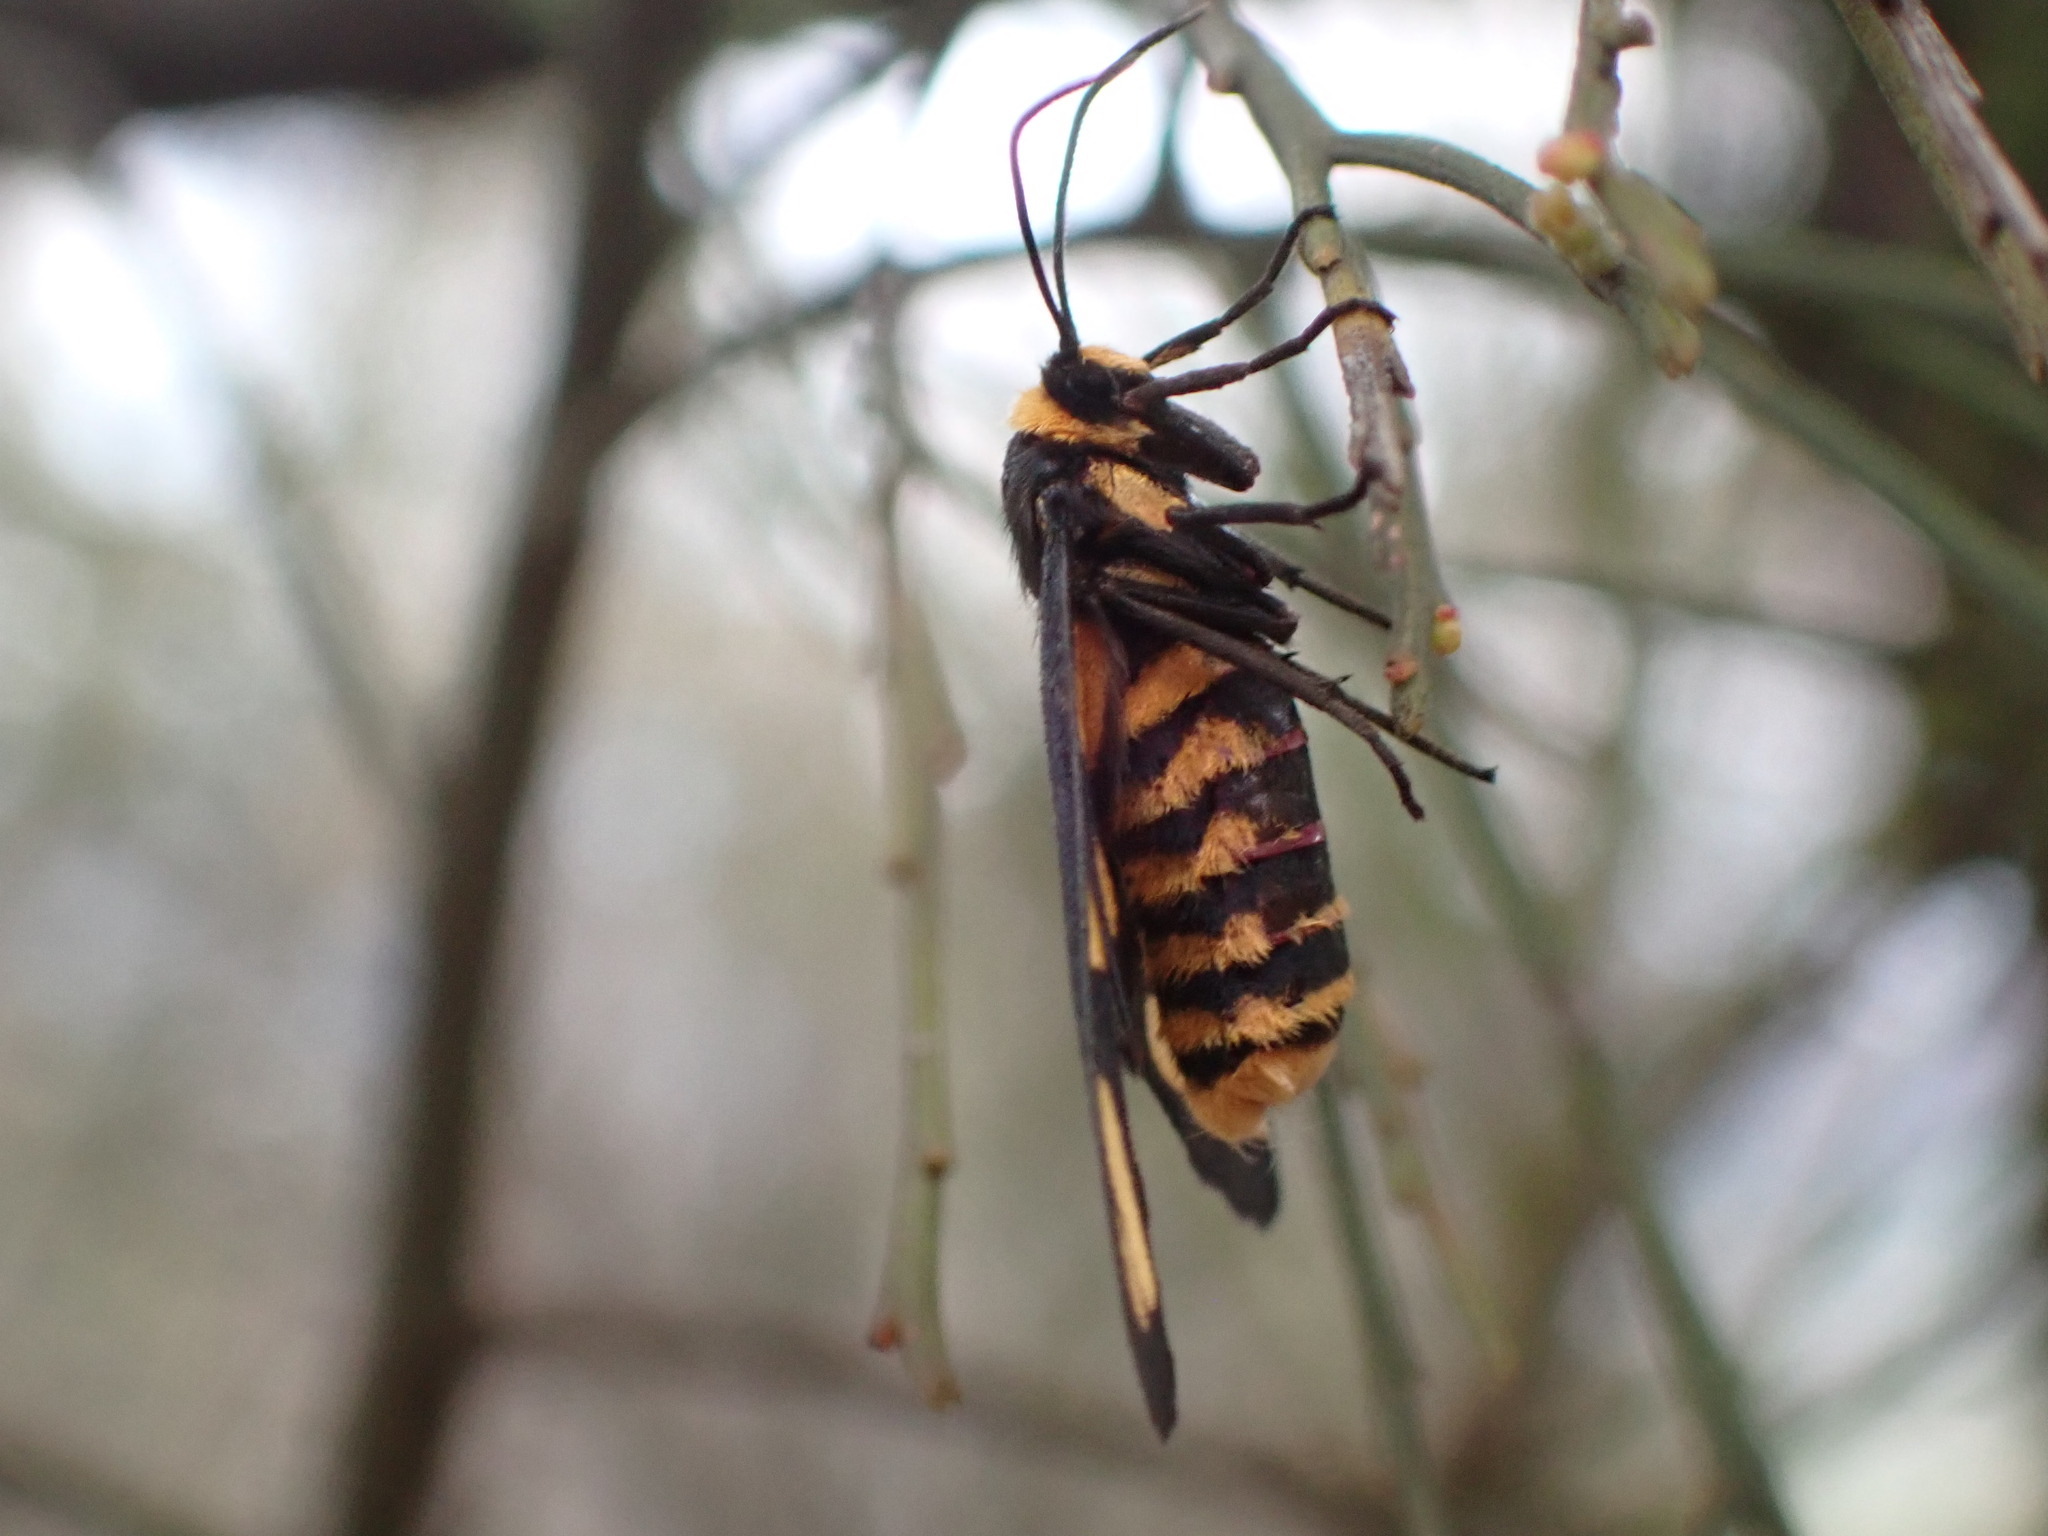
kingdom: Animalia
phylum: Arthropoda
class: Insecta
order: Lepidoptera
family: Erebidae
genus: Amata
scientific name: Amata nigriceps
